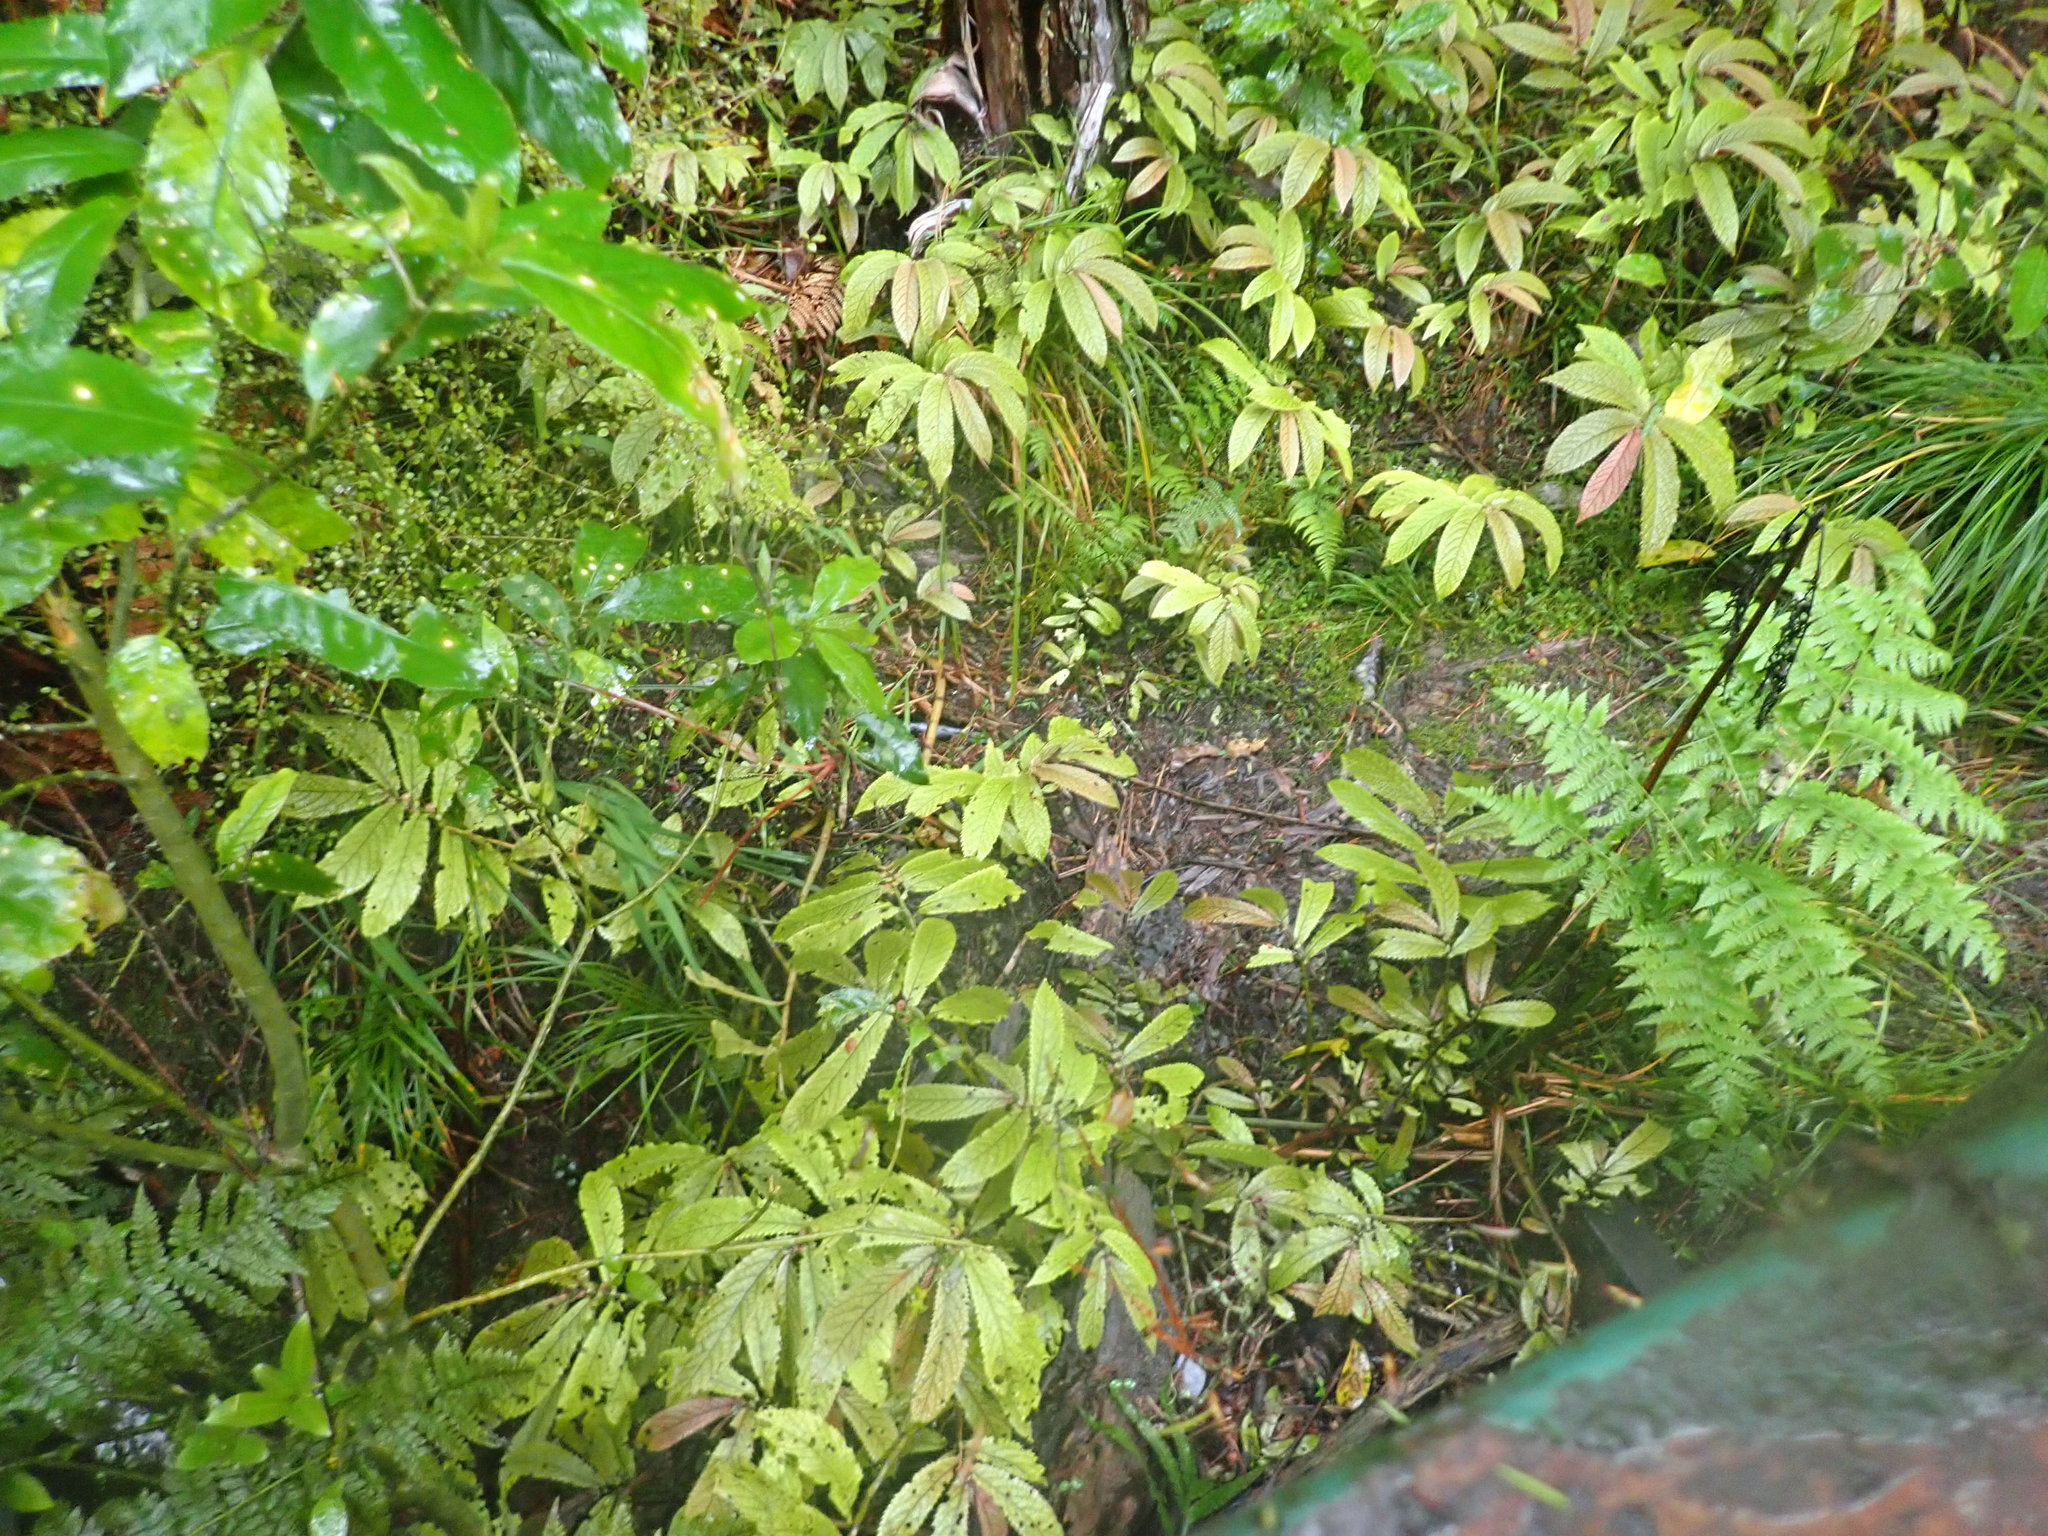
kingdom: Plantae
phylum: Tracheophyta
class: Magnoliopsida
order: Rosales
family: Urticaceae
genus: Elatostema
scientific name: Elatostema rugosum
